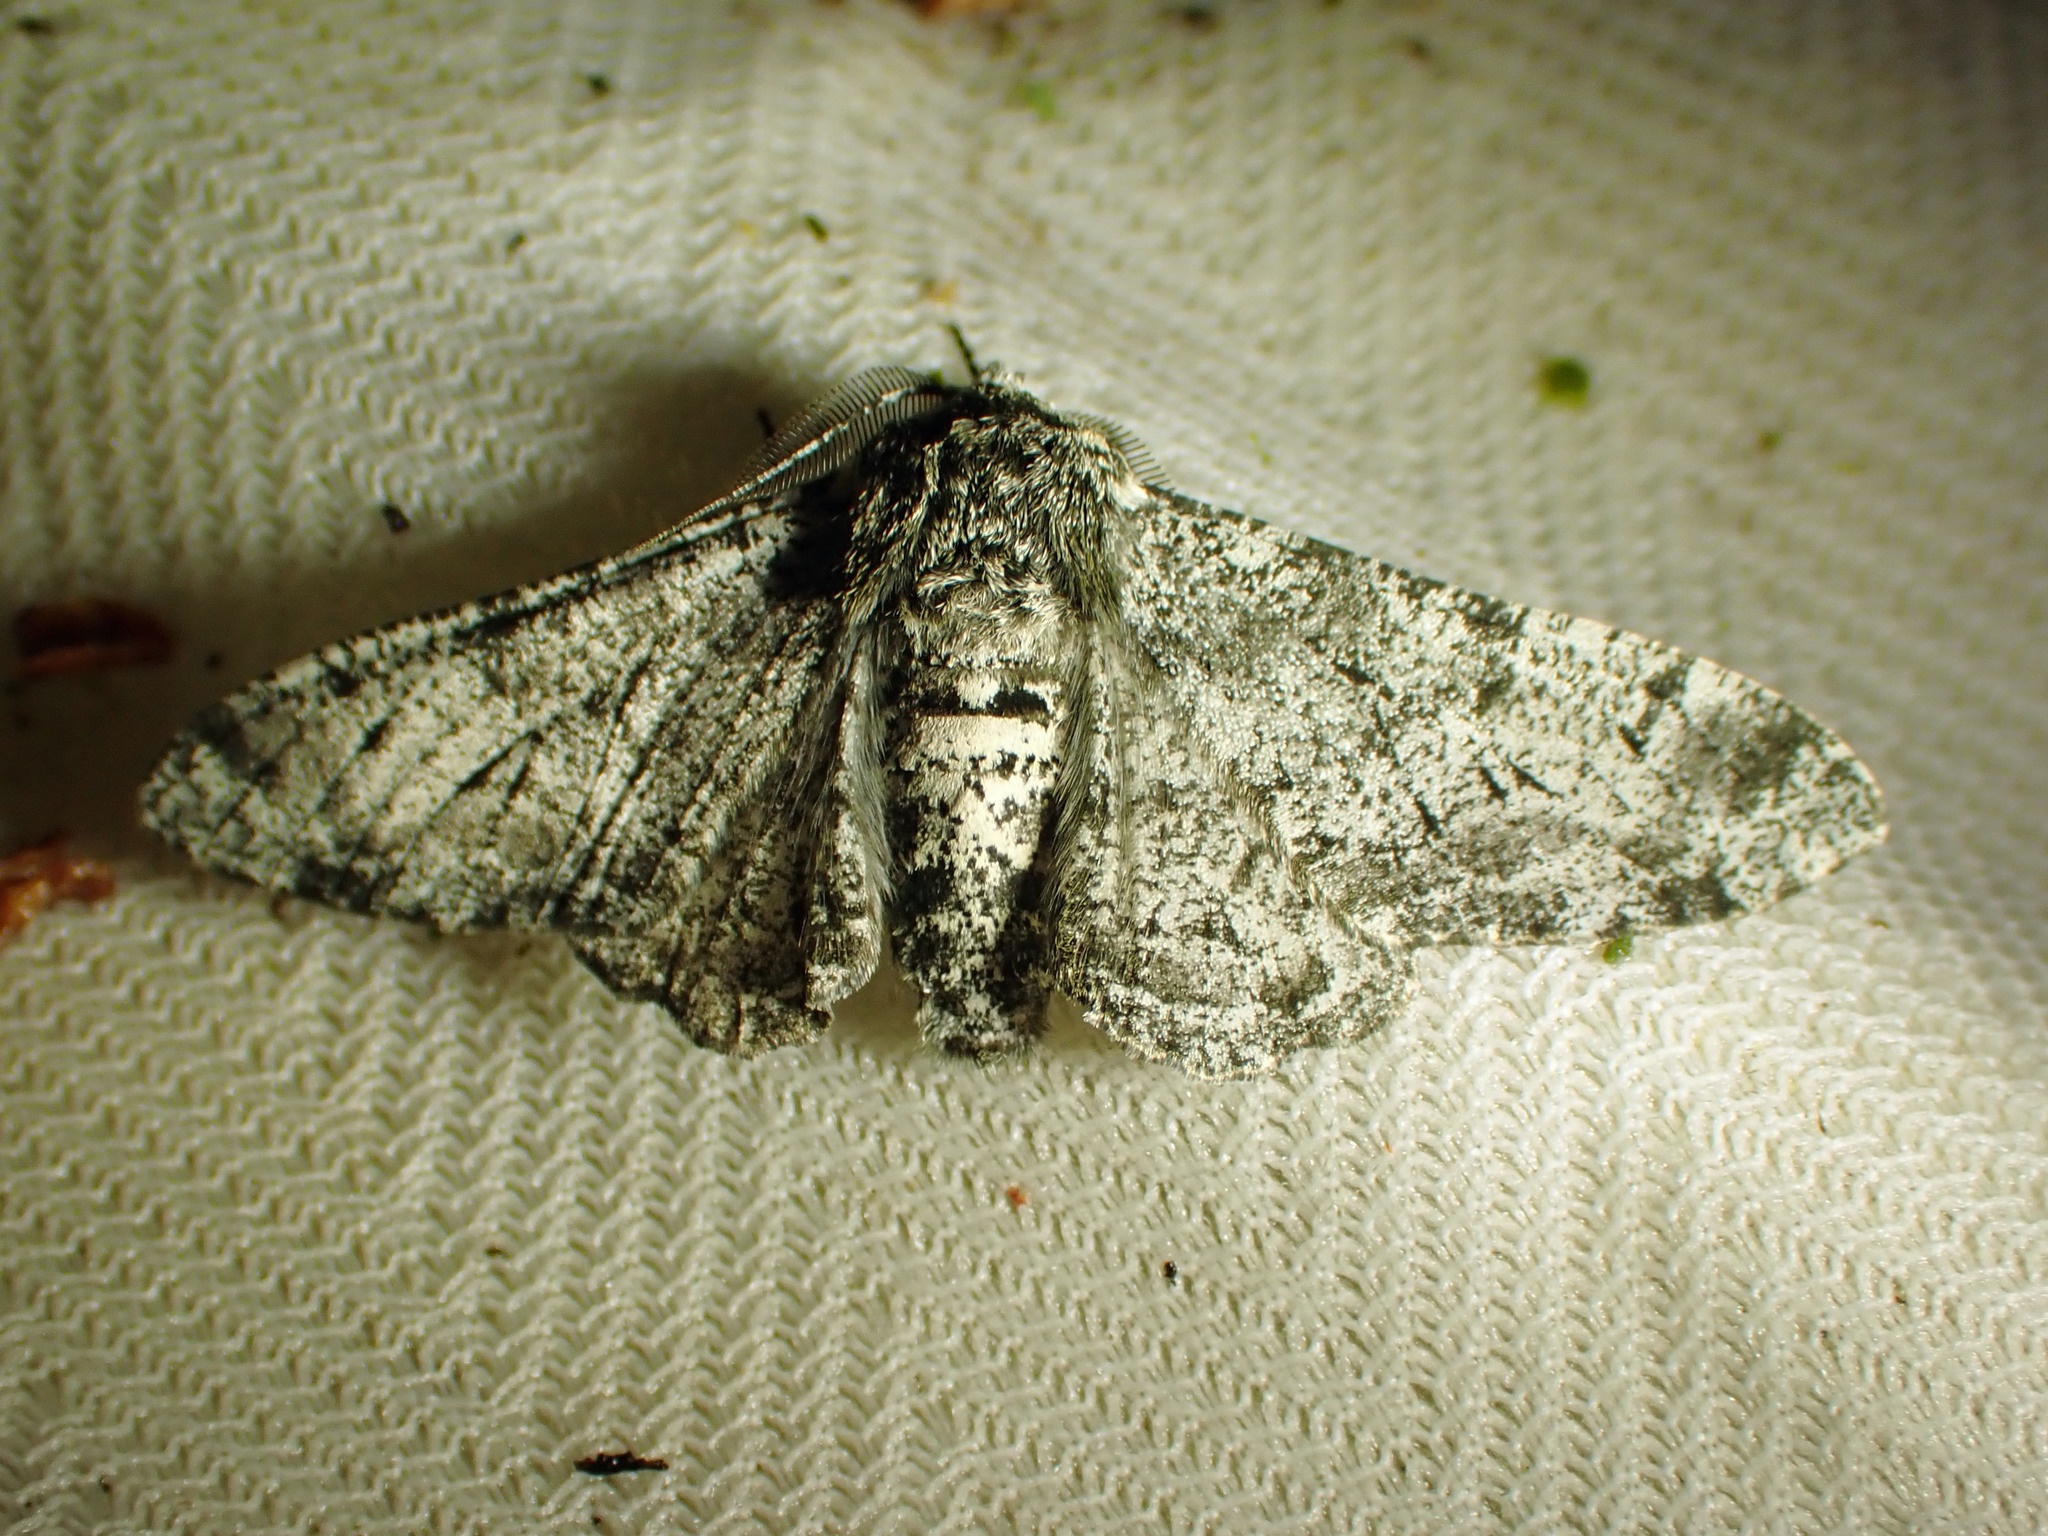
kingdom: Animalia
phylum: Arthropoda
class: Insecta
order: Lepidoptera
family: Geometridae
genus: Biston
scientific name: Biston betularia
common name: Peppered moth
